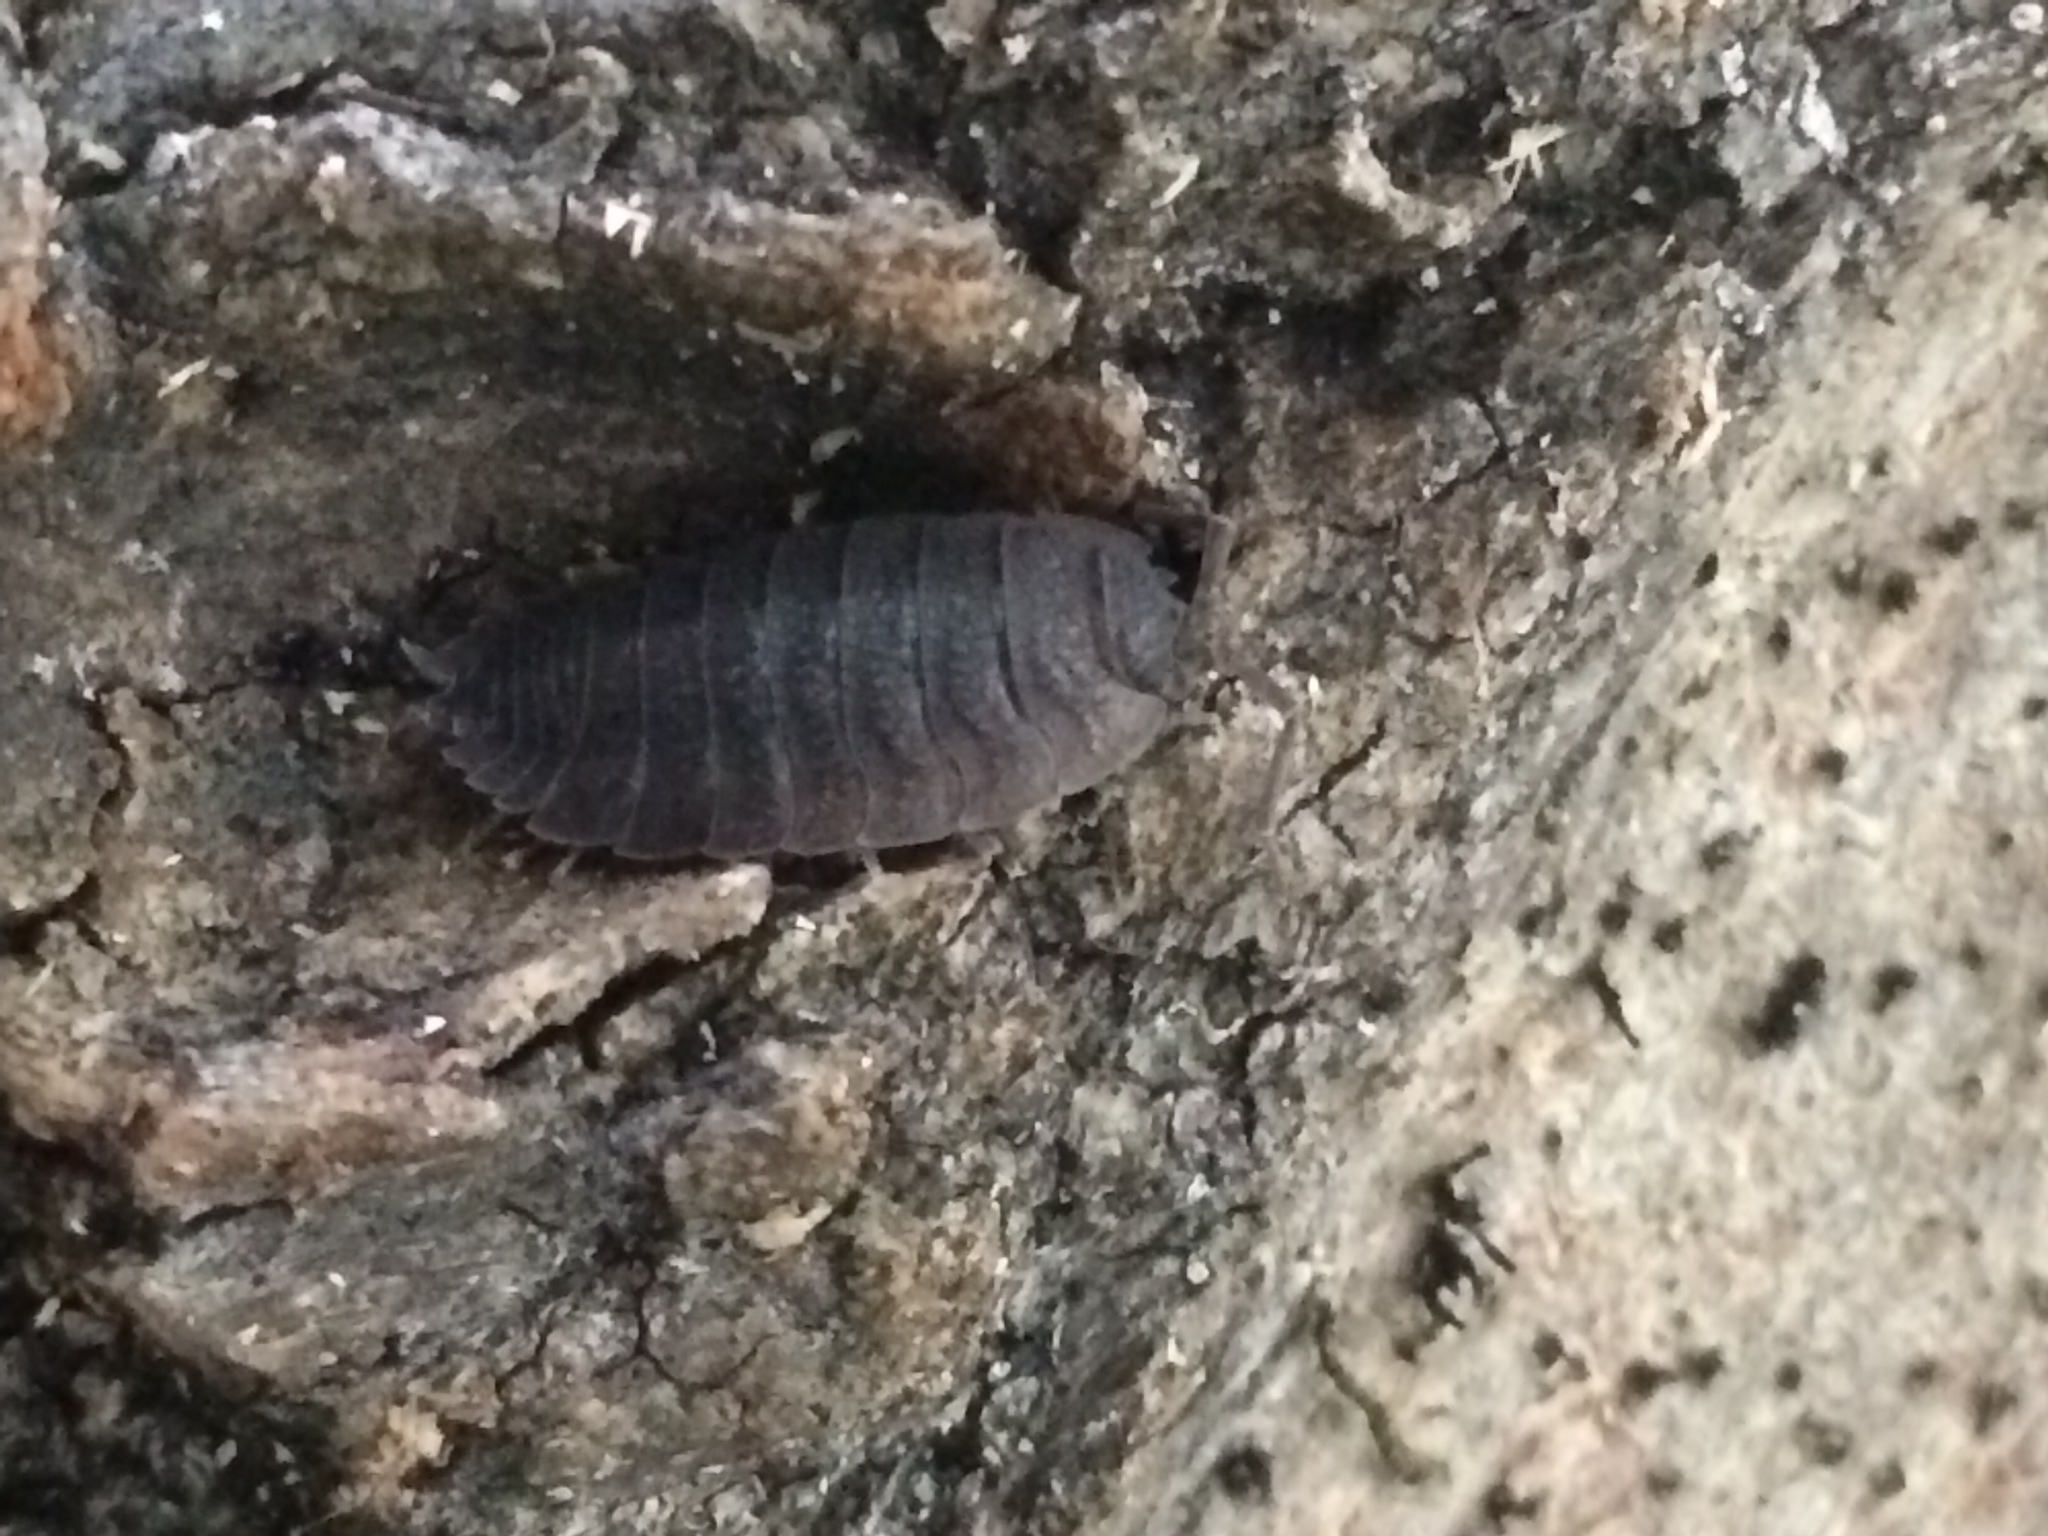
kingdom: Animalia
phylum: Arthropoda
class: Malacostraca
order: Isopoda
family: Porcellionidae
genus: Porcellio
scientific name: Porcellio scaber
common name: Common rough woodlouse
